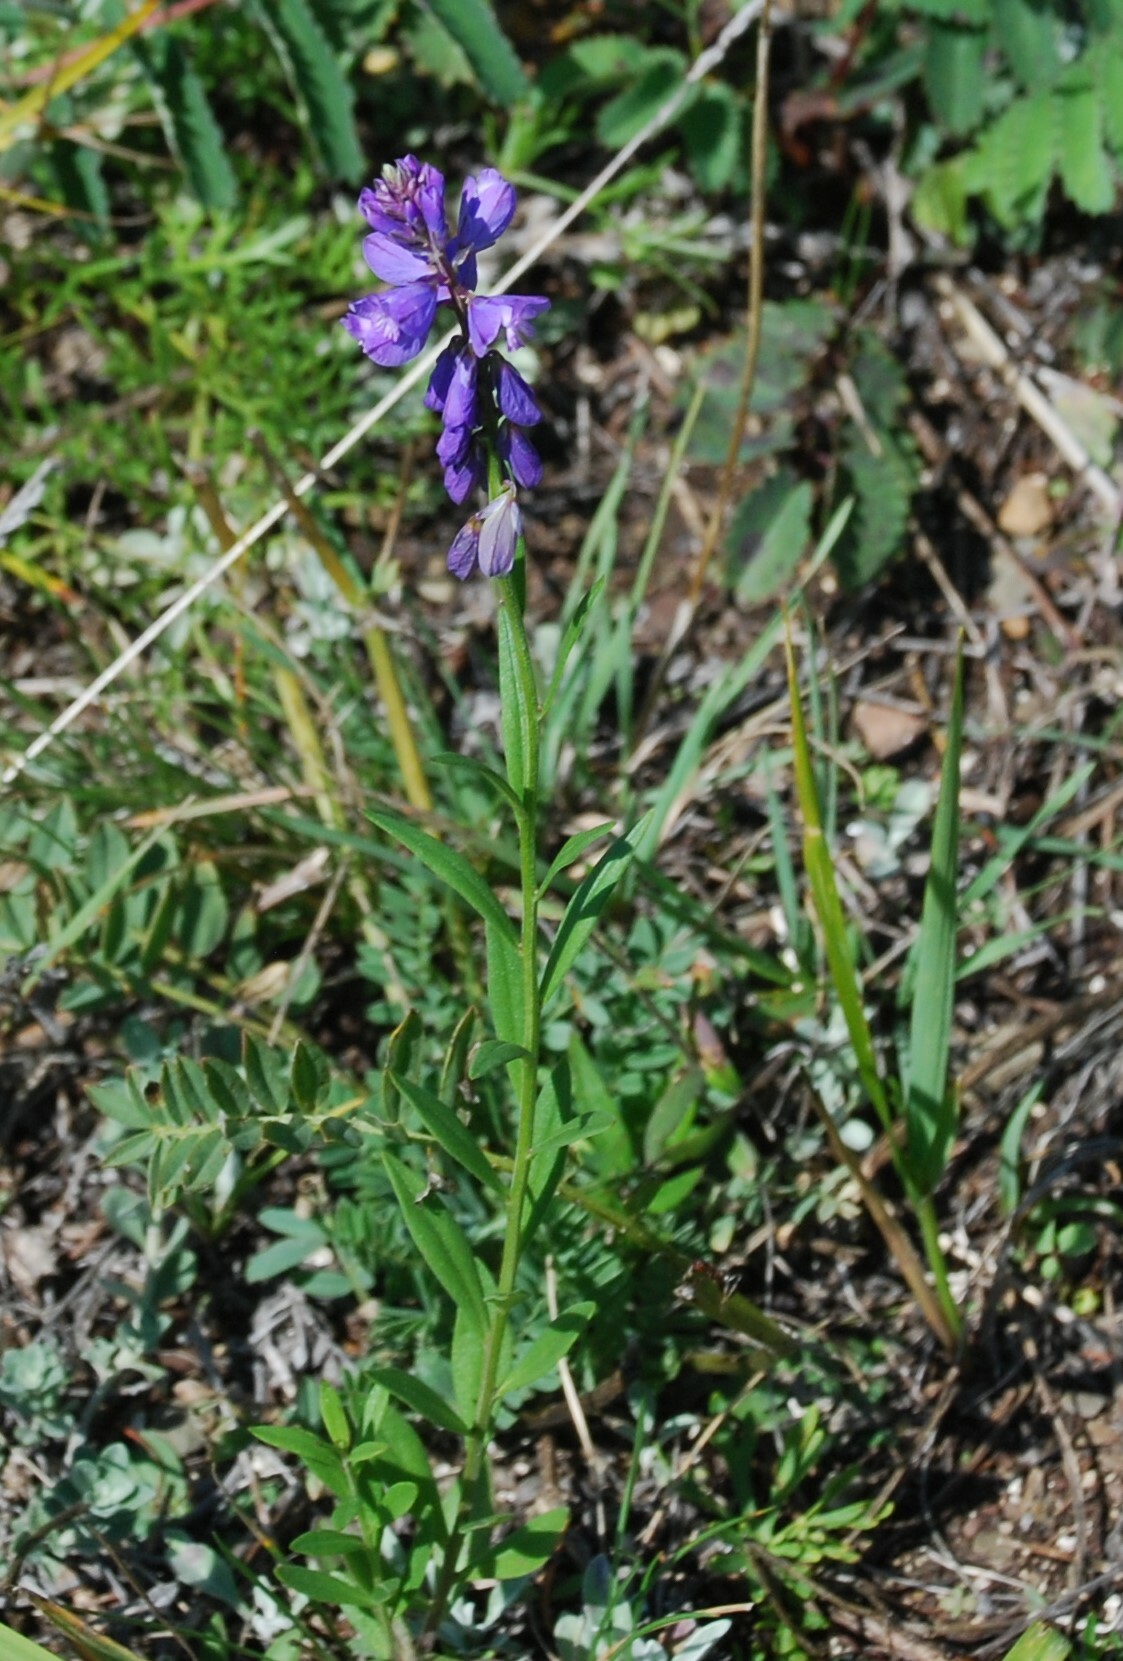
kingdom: Plantae
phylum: Tracheophyta
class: Magnoliopsida
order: Fabales
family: Polygalaceae
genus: Polygala
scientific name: Polygala comosa
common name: Tufted milkwort
